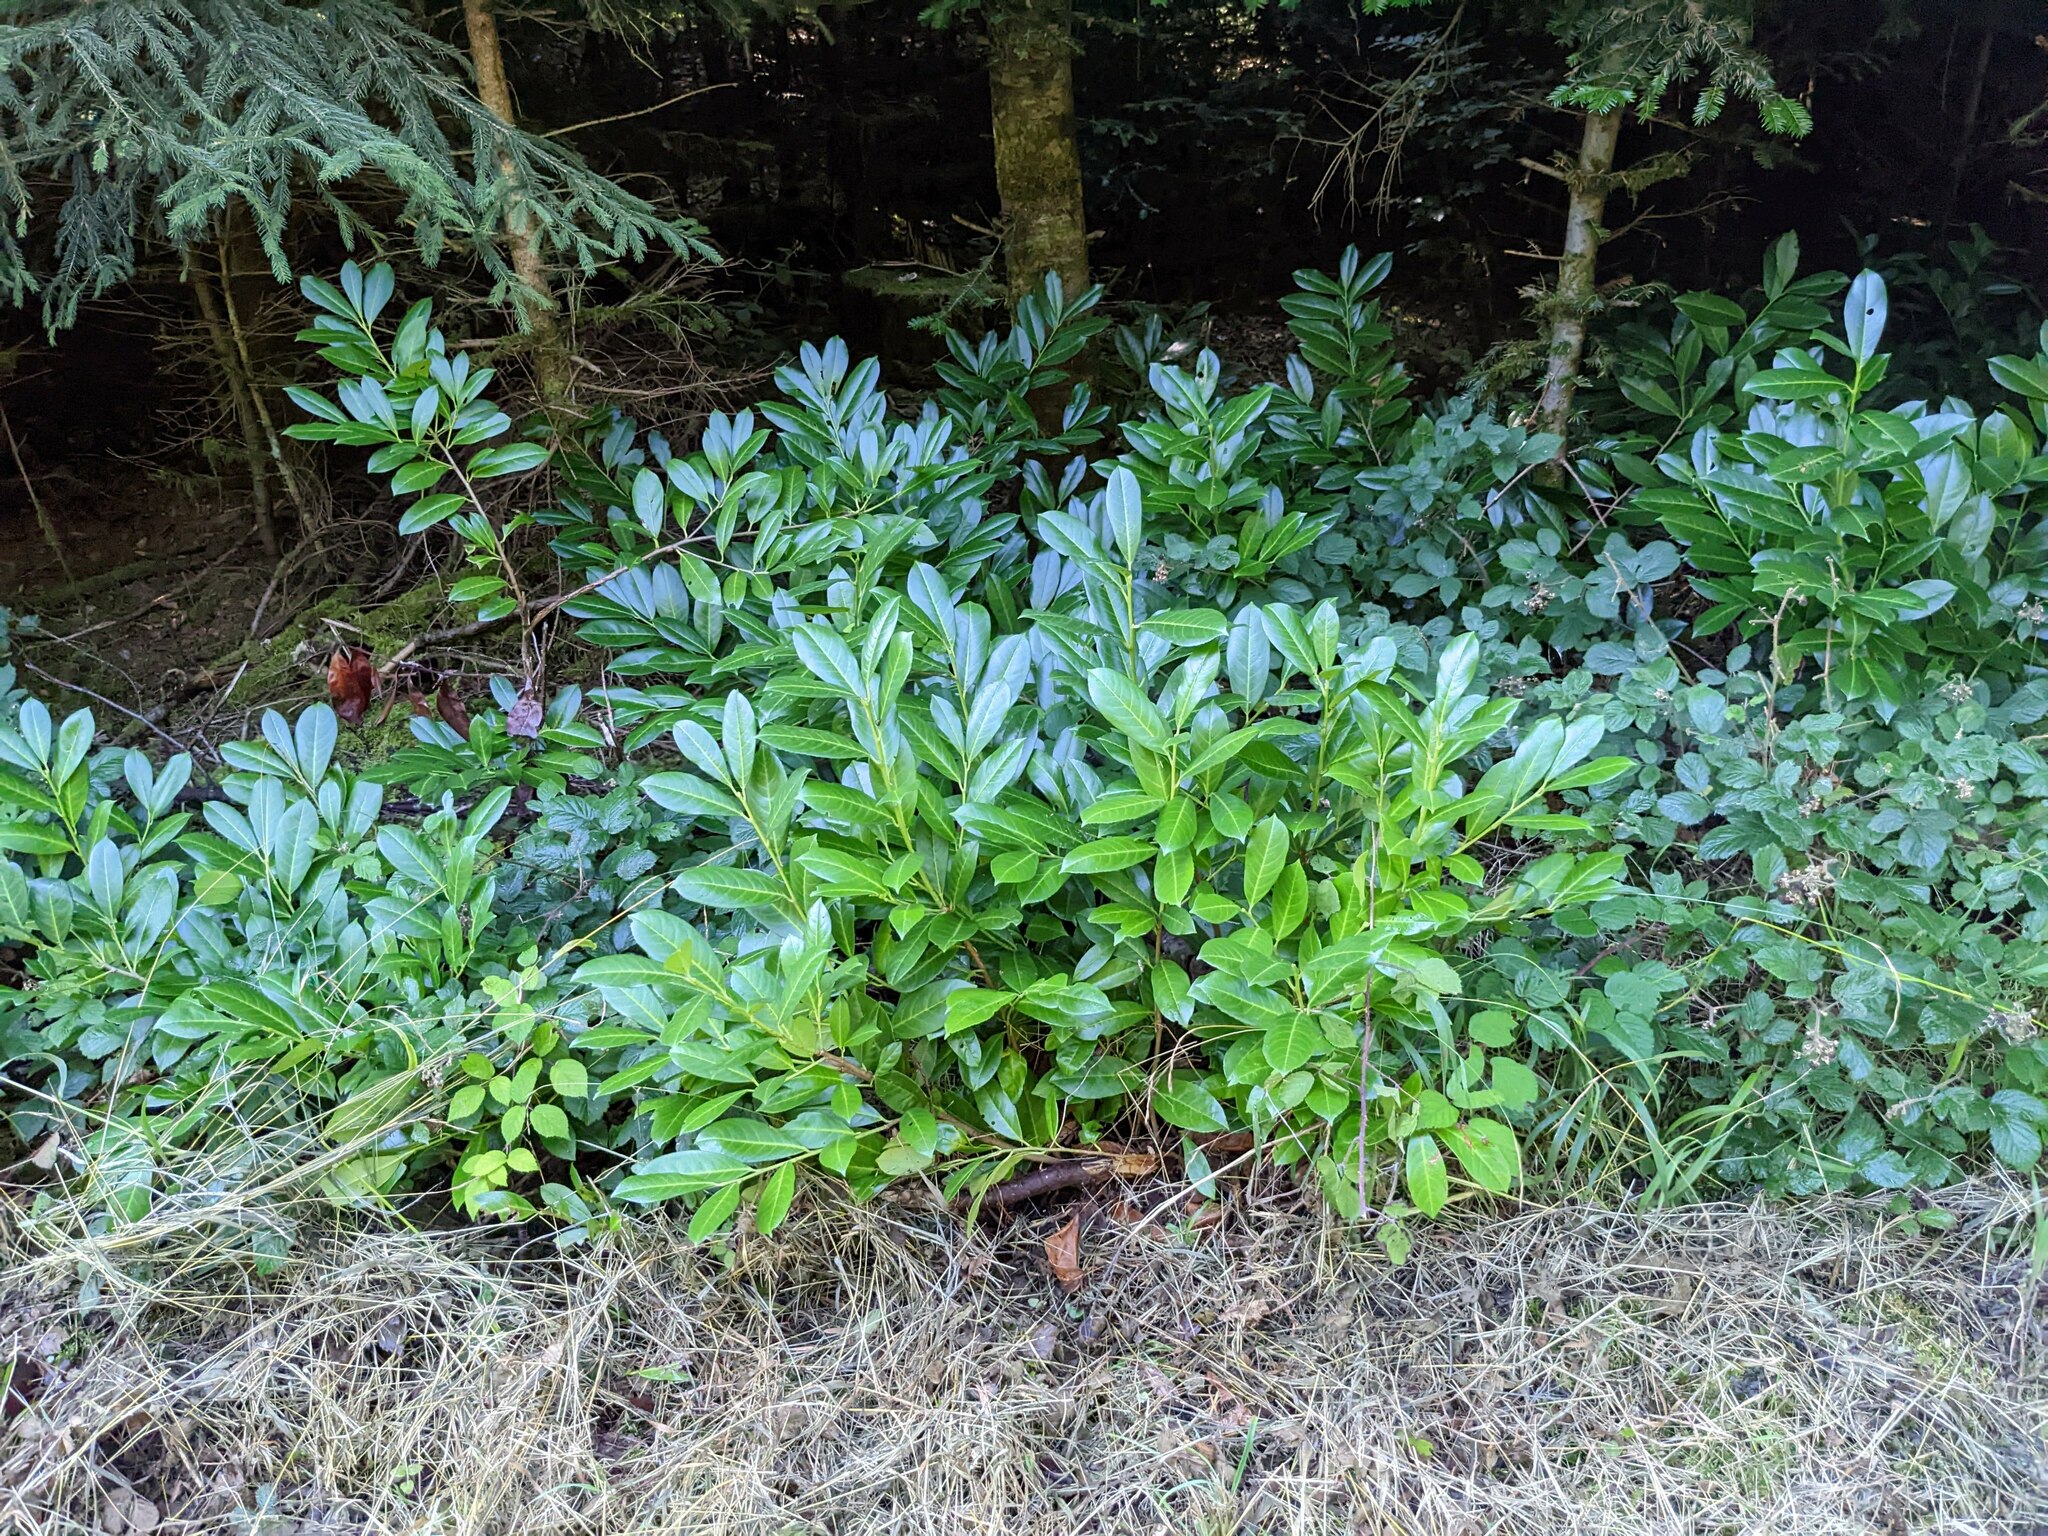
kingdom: Plantae
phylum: Tracheophyta
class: Magnoliopsida
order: Rosales
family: Rosaceae
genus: Prunus
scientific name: Prunus laurocerasus
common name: Cherry laurel
